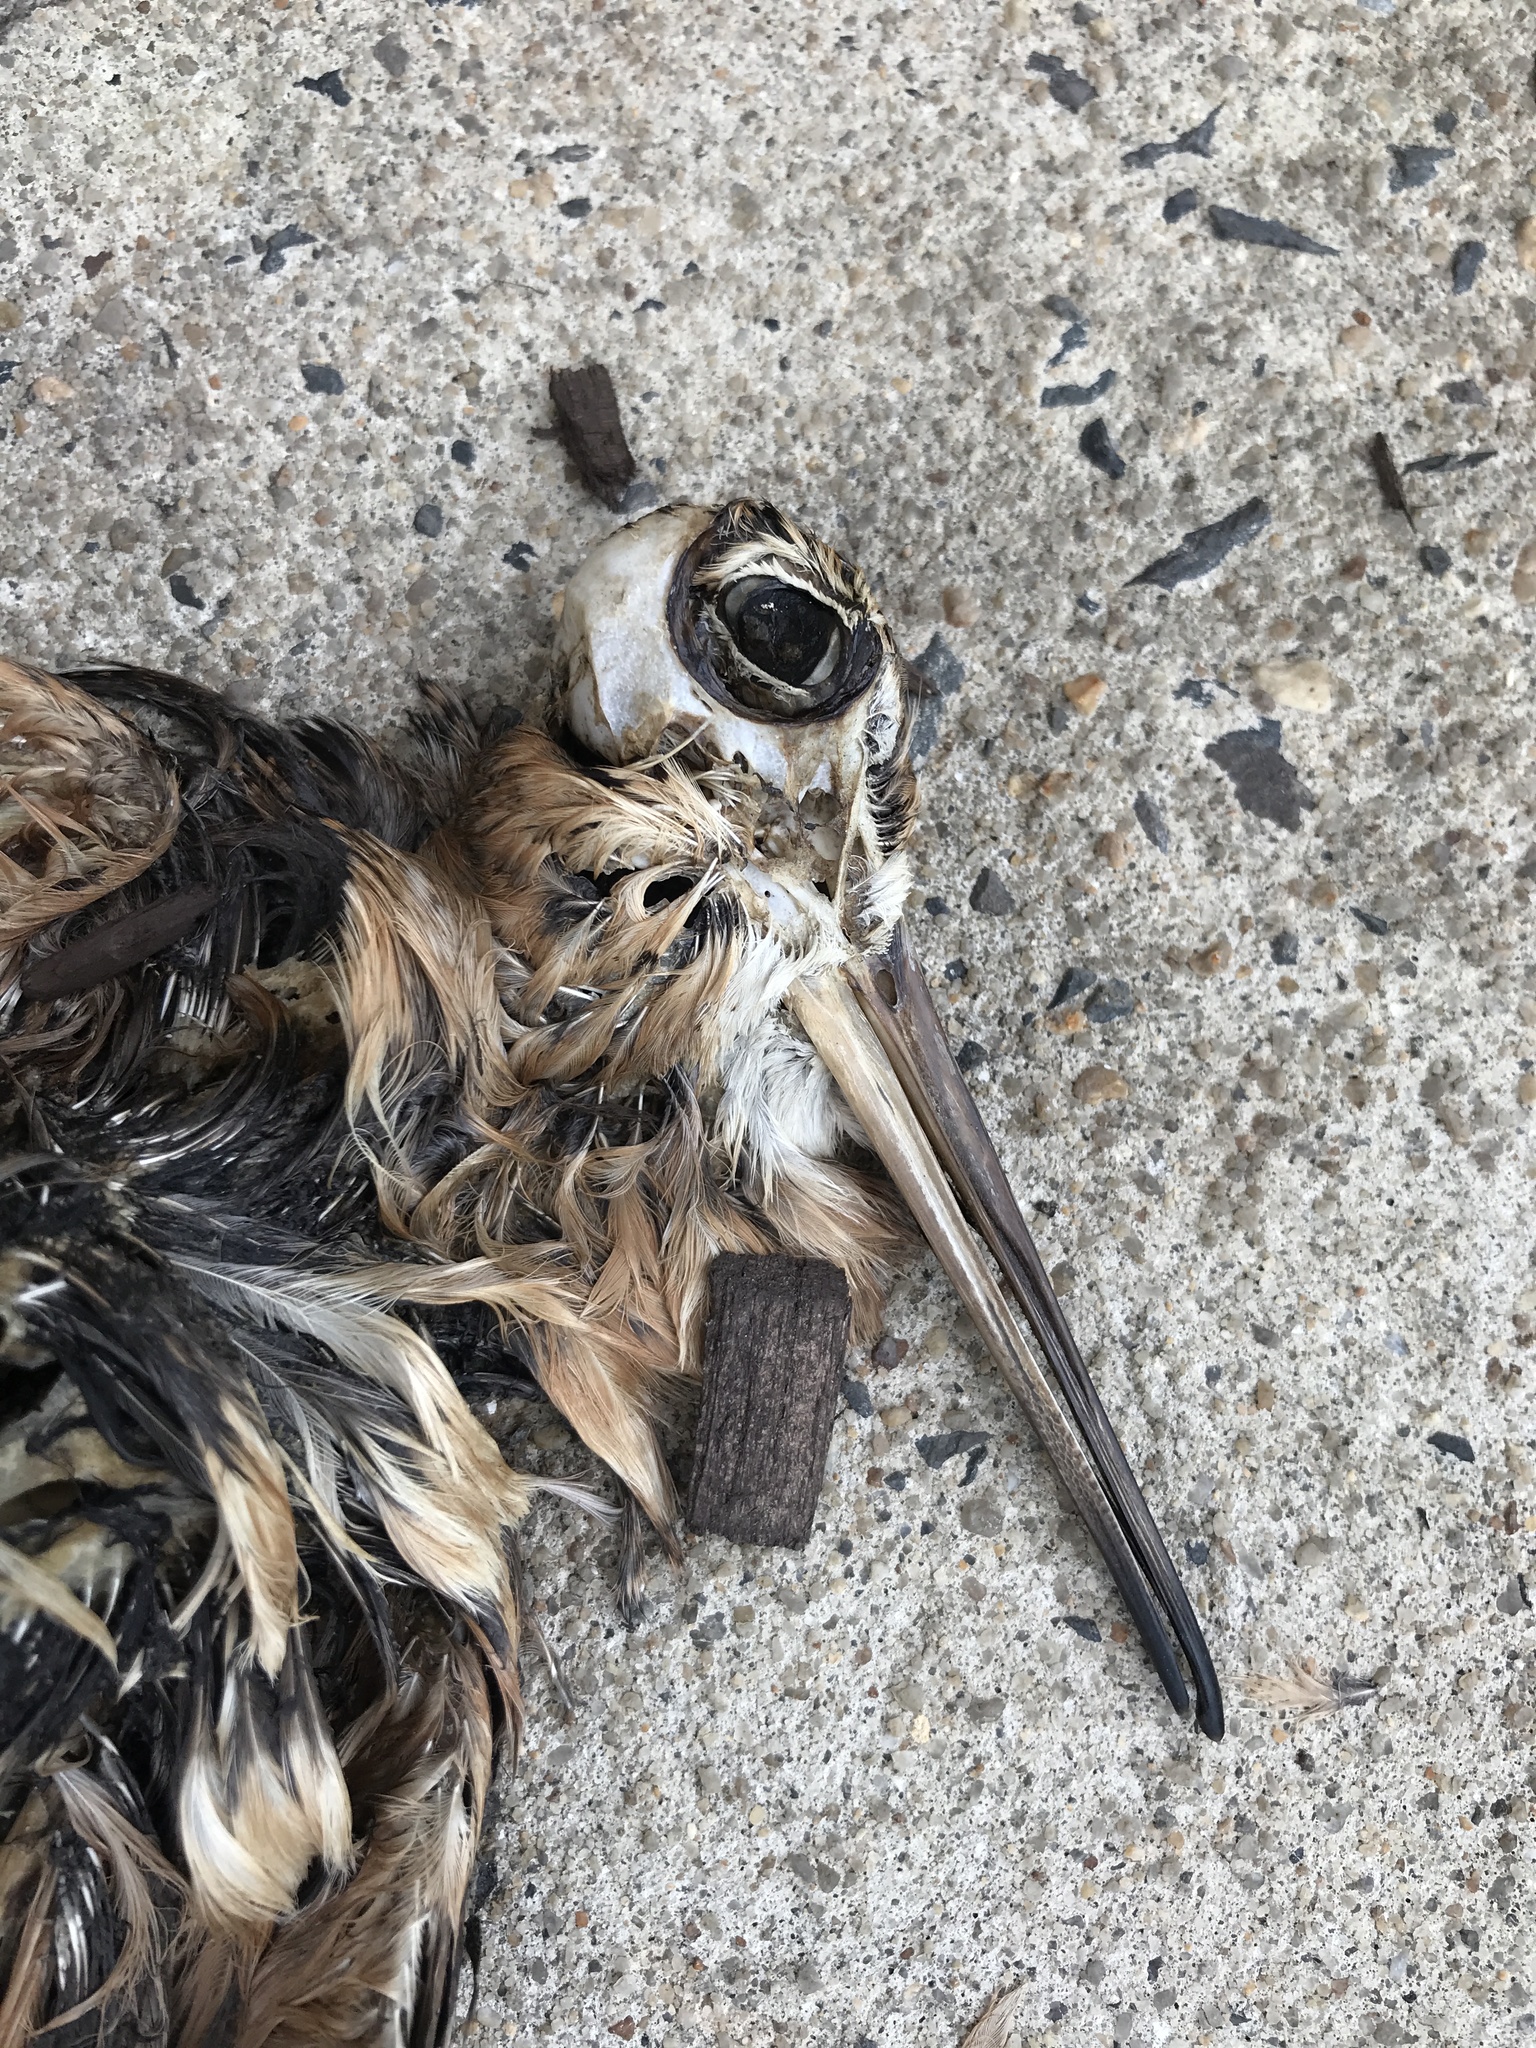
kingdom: Animalia
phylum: Chordata
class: Aves
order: Charadriiformes
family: Scolopacidae
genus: Scolopax
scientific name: Scolopax minor
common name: American woodcock
